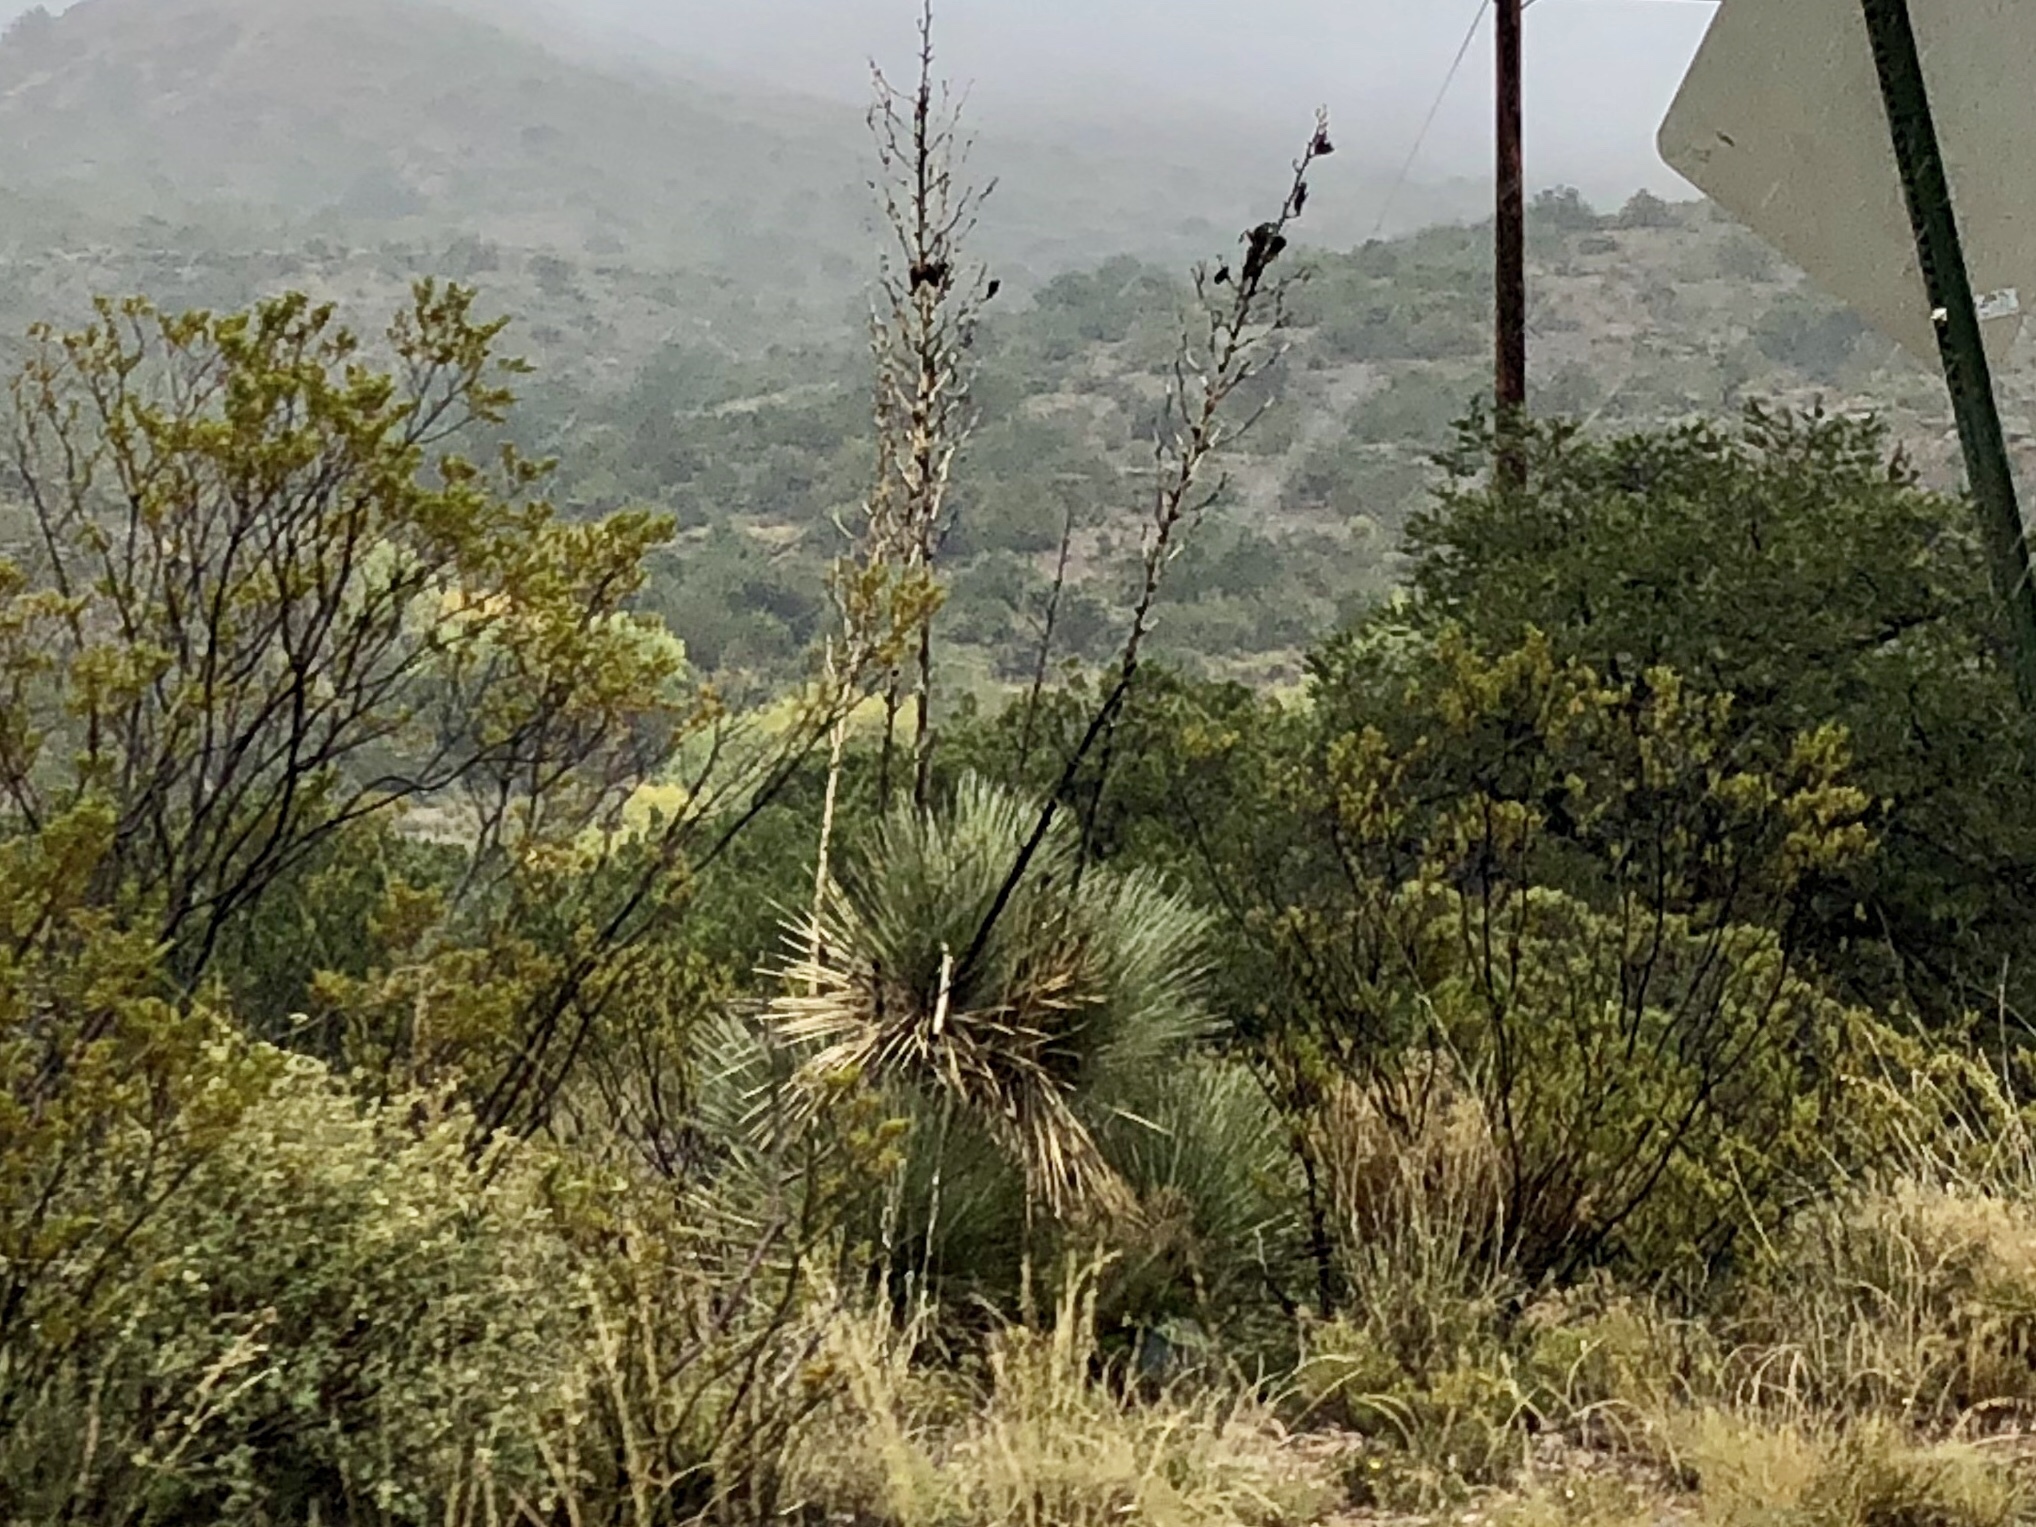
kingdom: Plantae
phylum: Tracheophyta
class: Liliopsida
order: Asparagales
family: Asparagaceae
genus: Yucca
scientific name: Yucca elata
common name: Palmella
